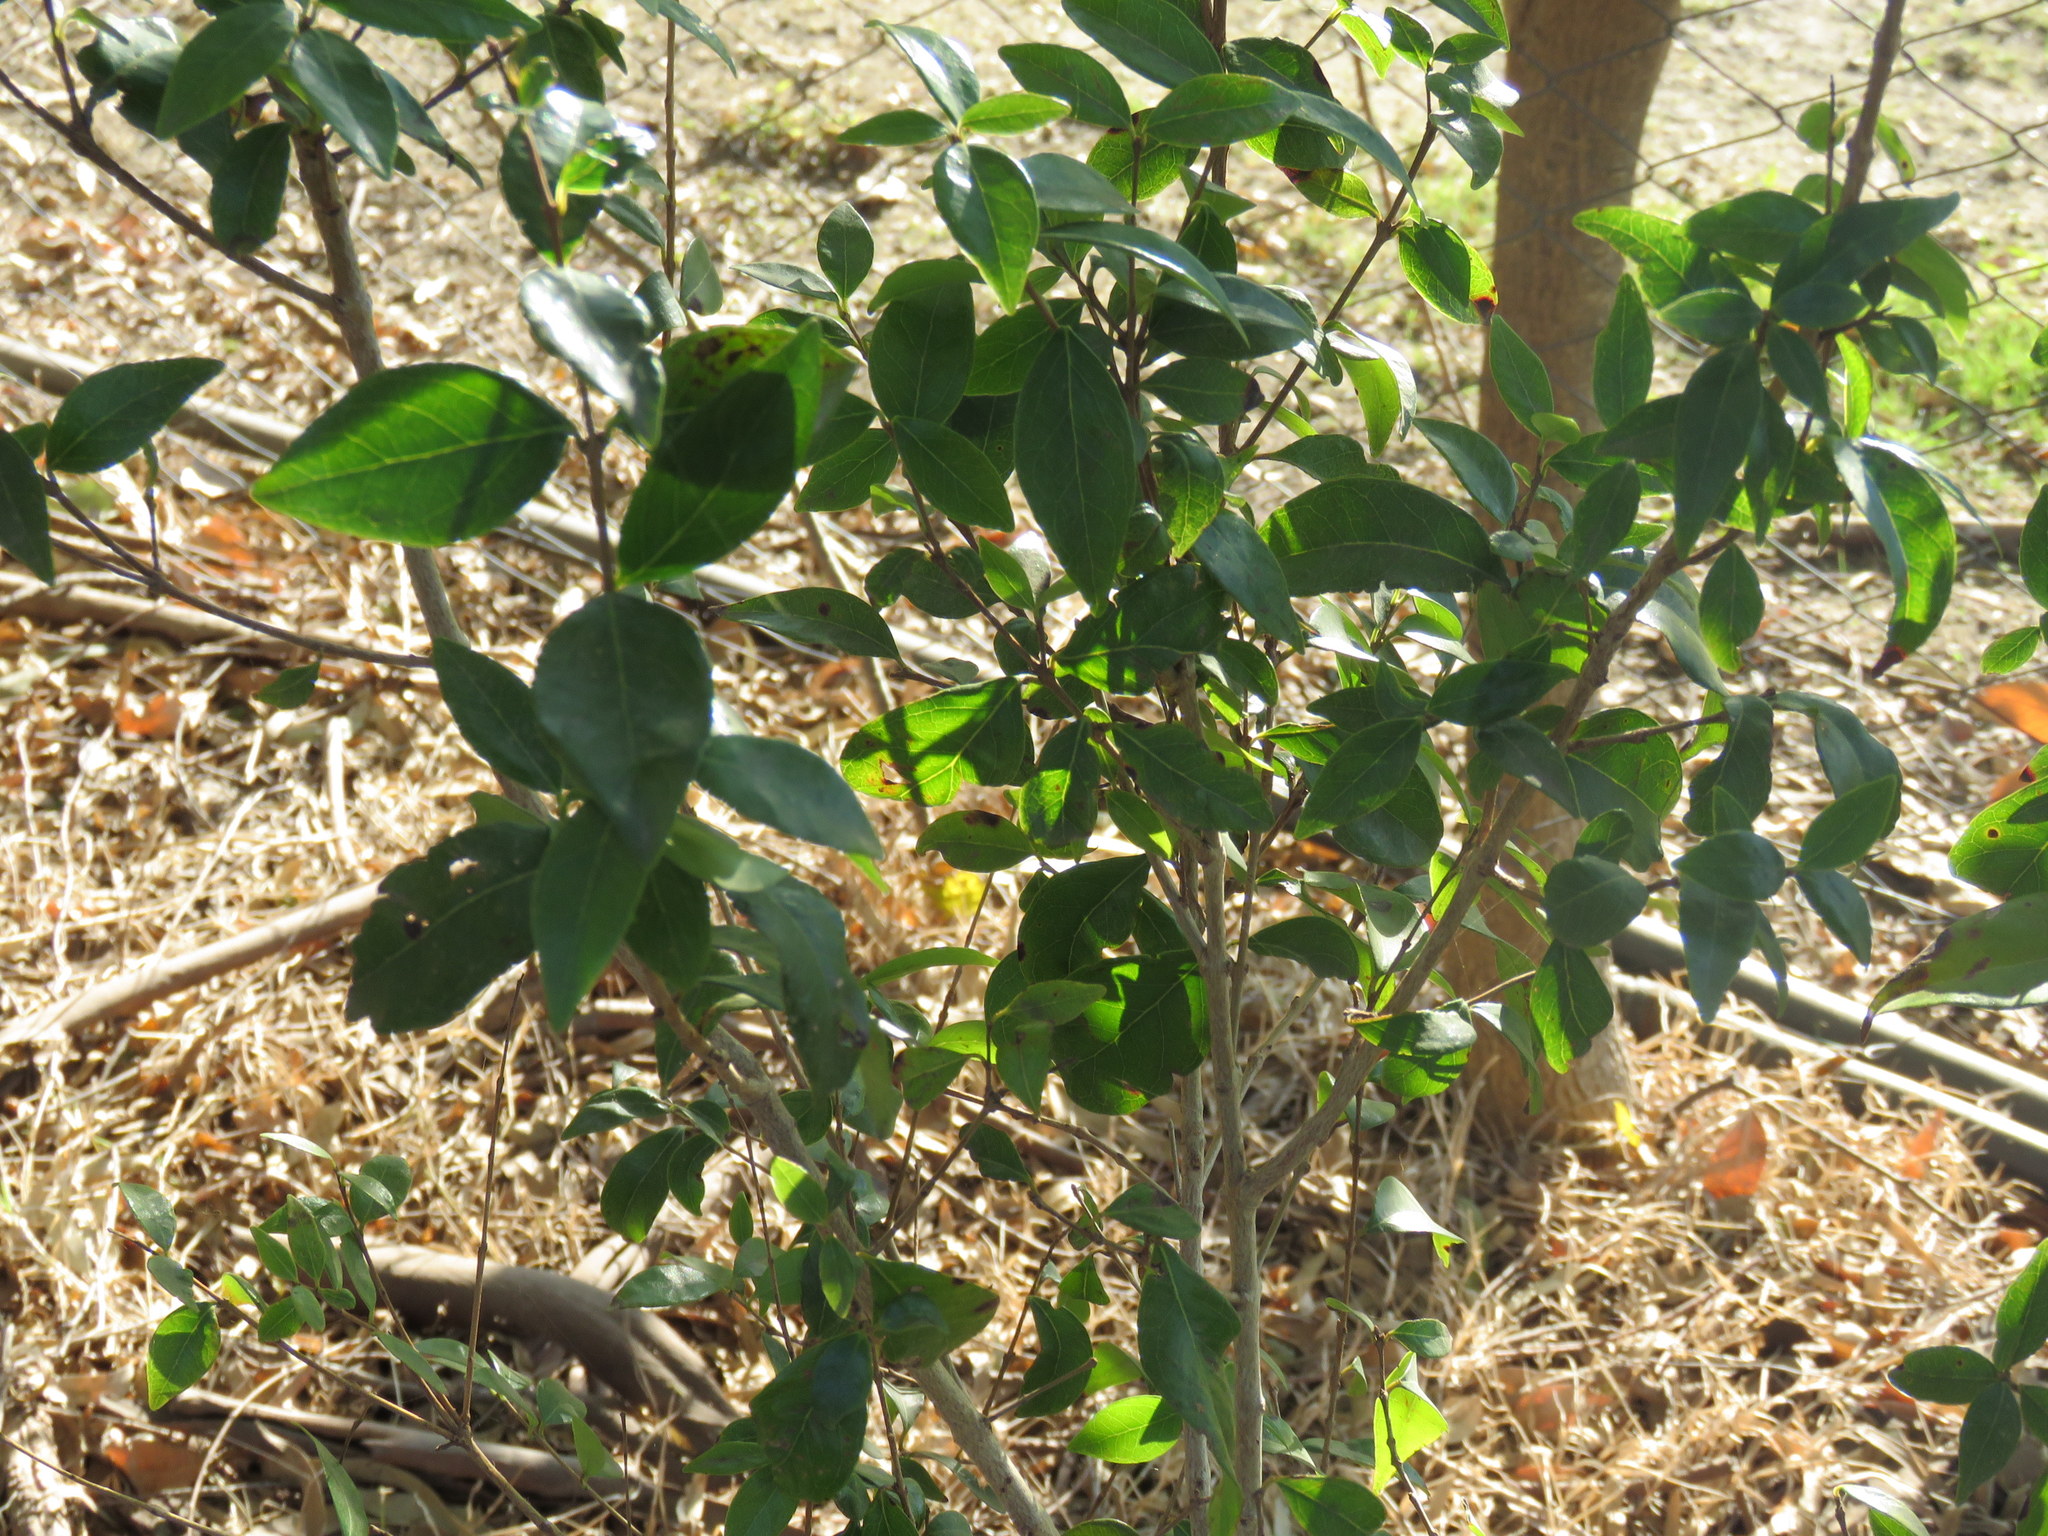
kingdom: Plantae
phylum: Tracheophyta
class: Magnoliopsida
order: Lamiales
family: Oleaceae
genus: Ligustrum
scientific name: Ligustrum lucidum
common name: Glossy privet
